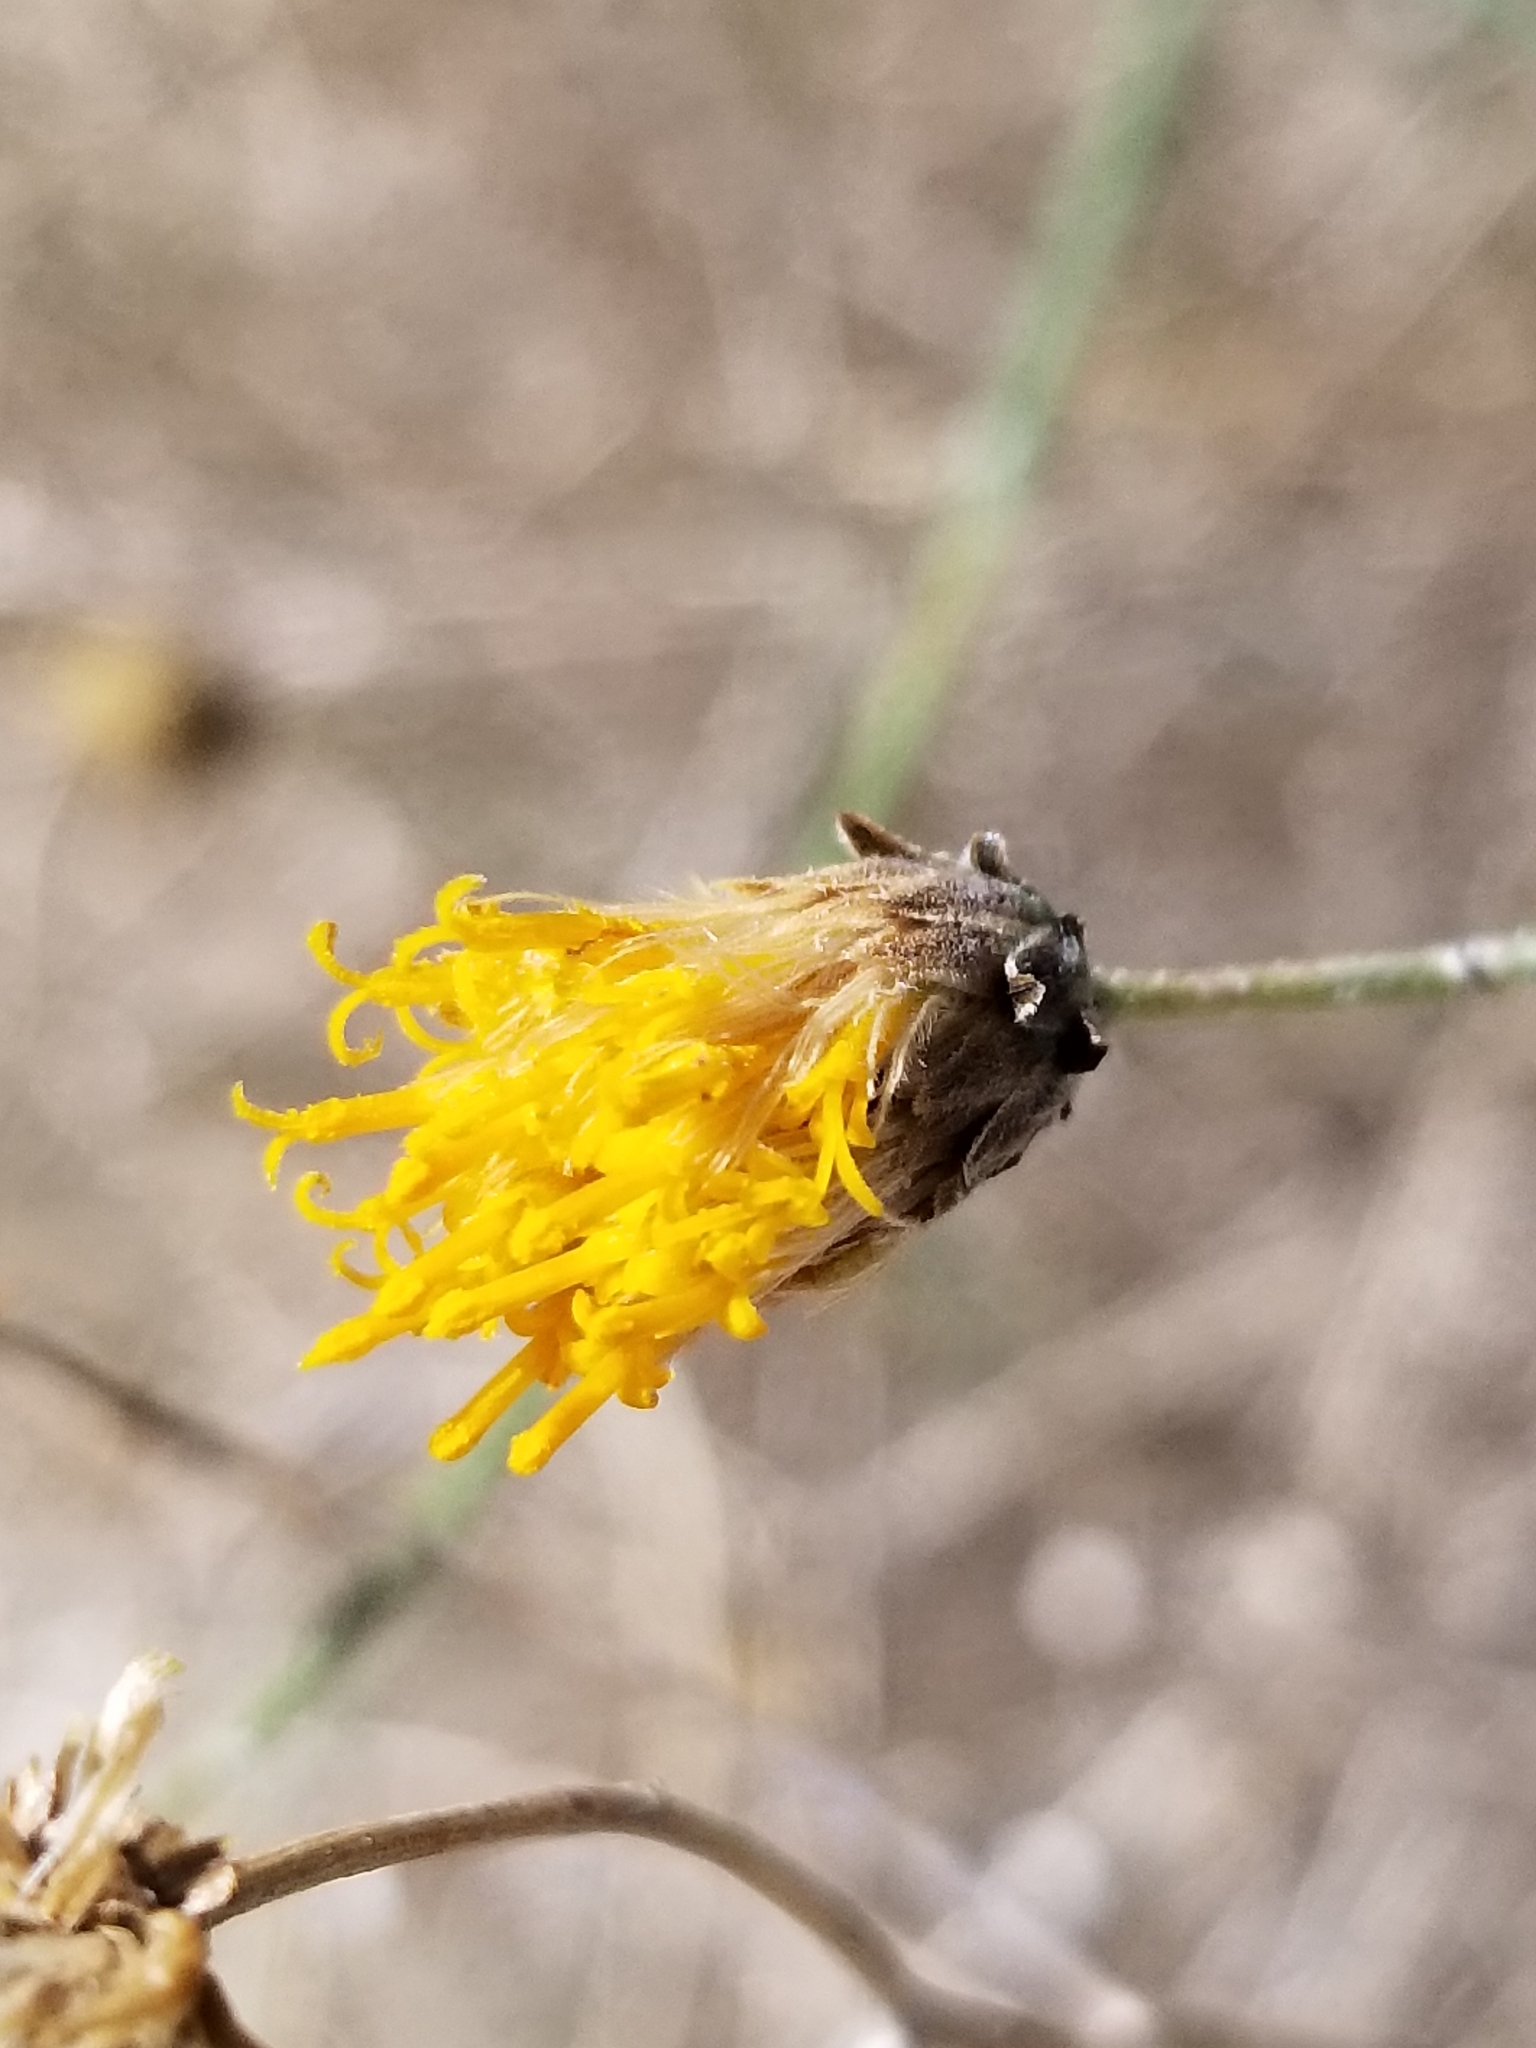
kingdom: Plantae
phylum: Tracheophyta
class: Magnoliopsida
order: Asterales
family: Asteraceae
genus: Bebbia
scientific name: Bebbia juncea
